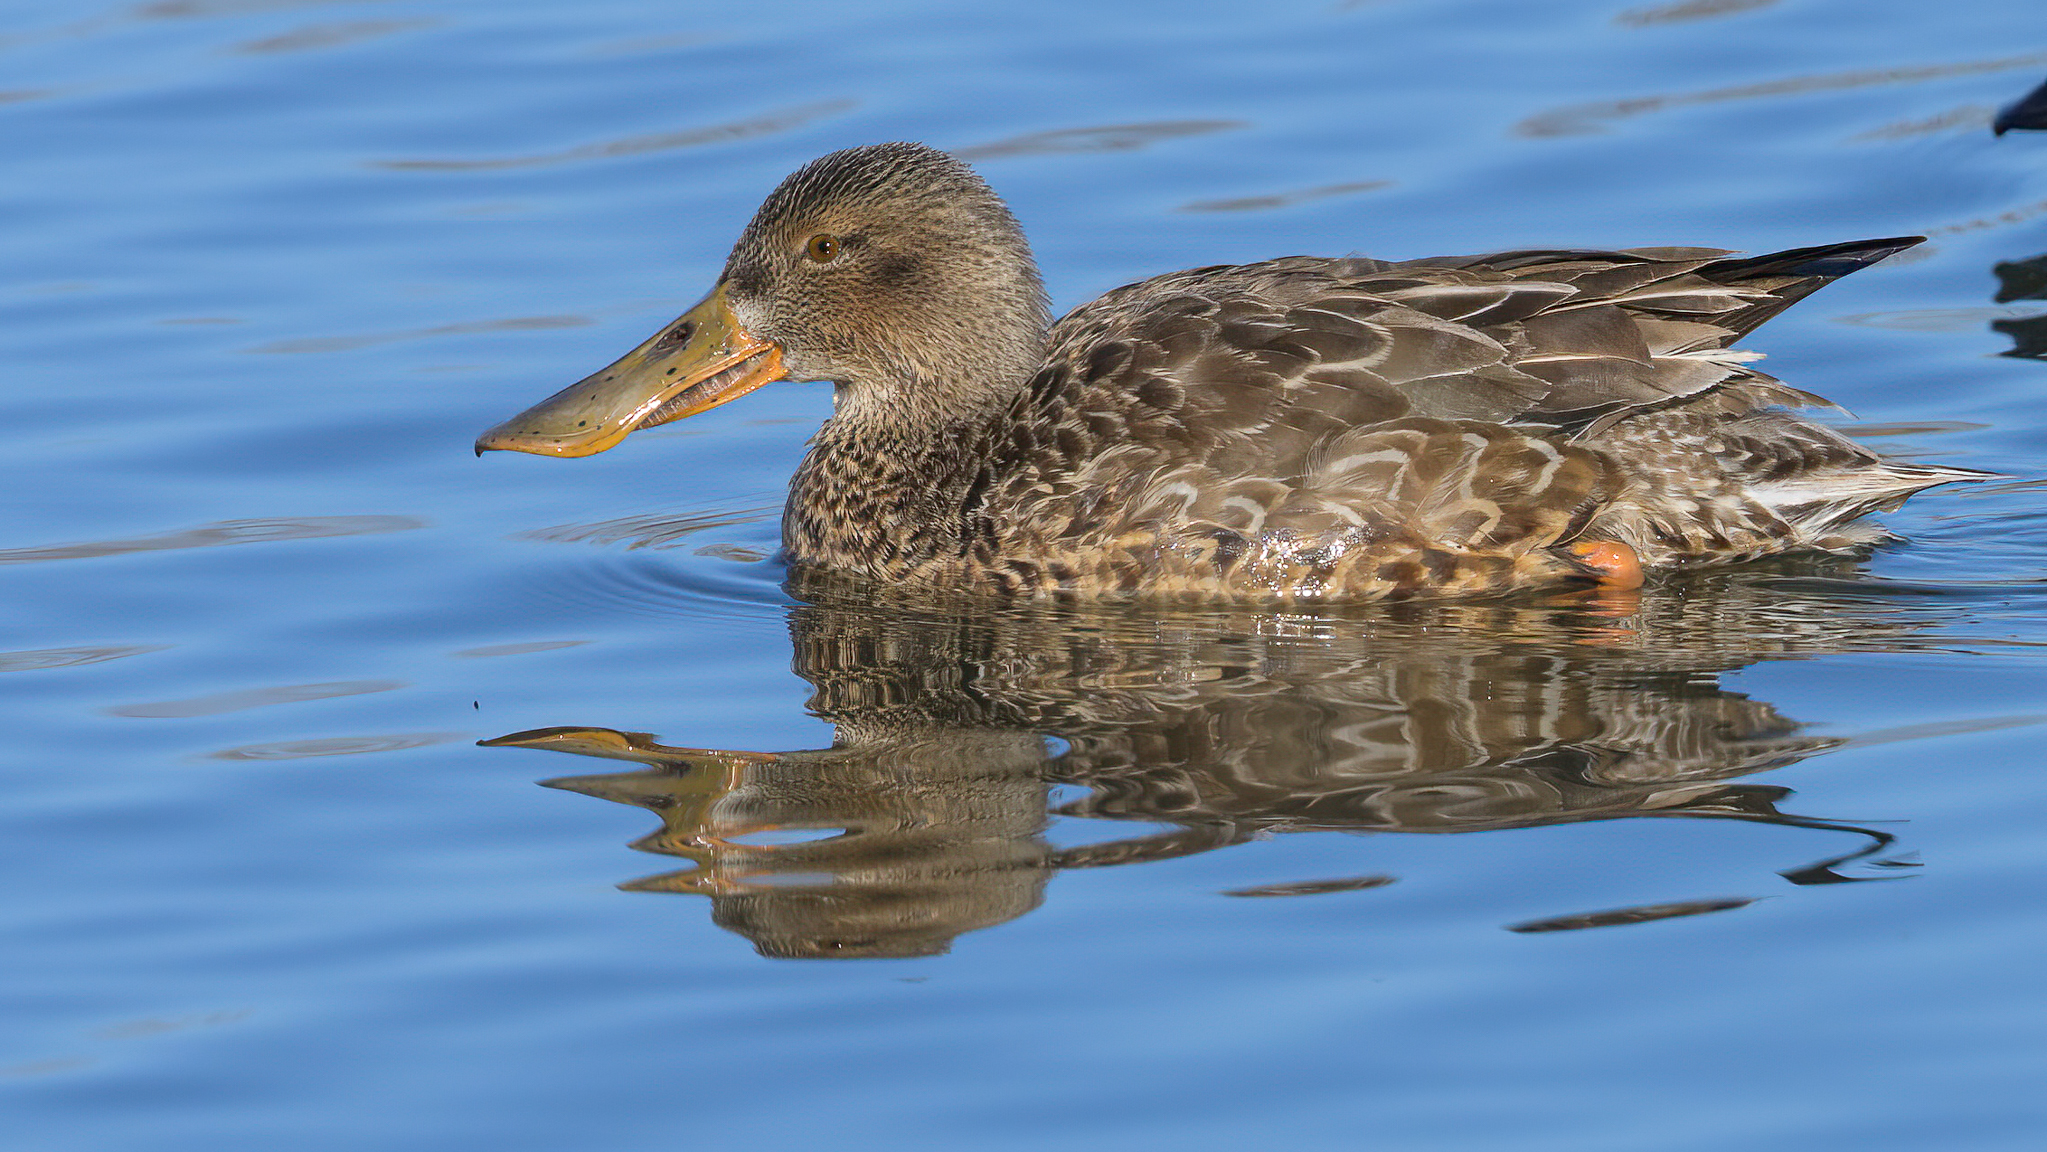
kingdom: Animalia
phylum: Chordata
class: Aves
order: Anseriformes
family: Anatidae
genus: Spatula
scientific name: Spatula clypeata
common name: Northern shoveler
